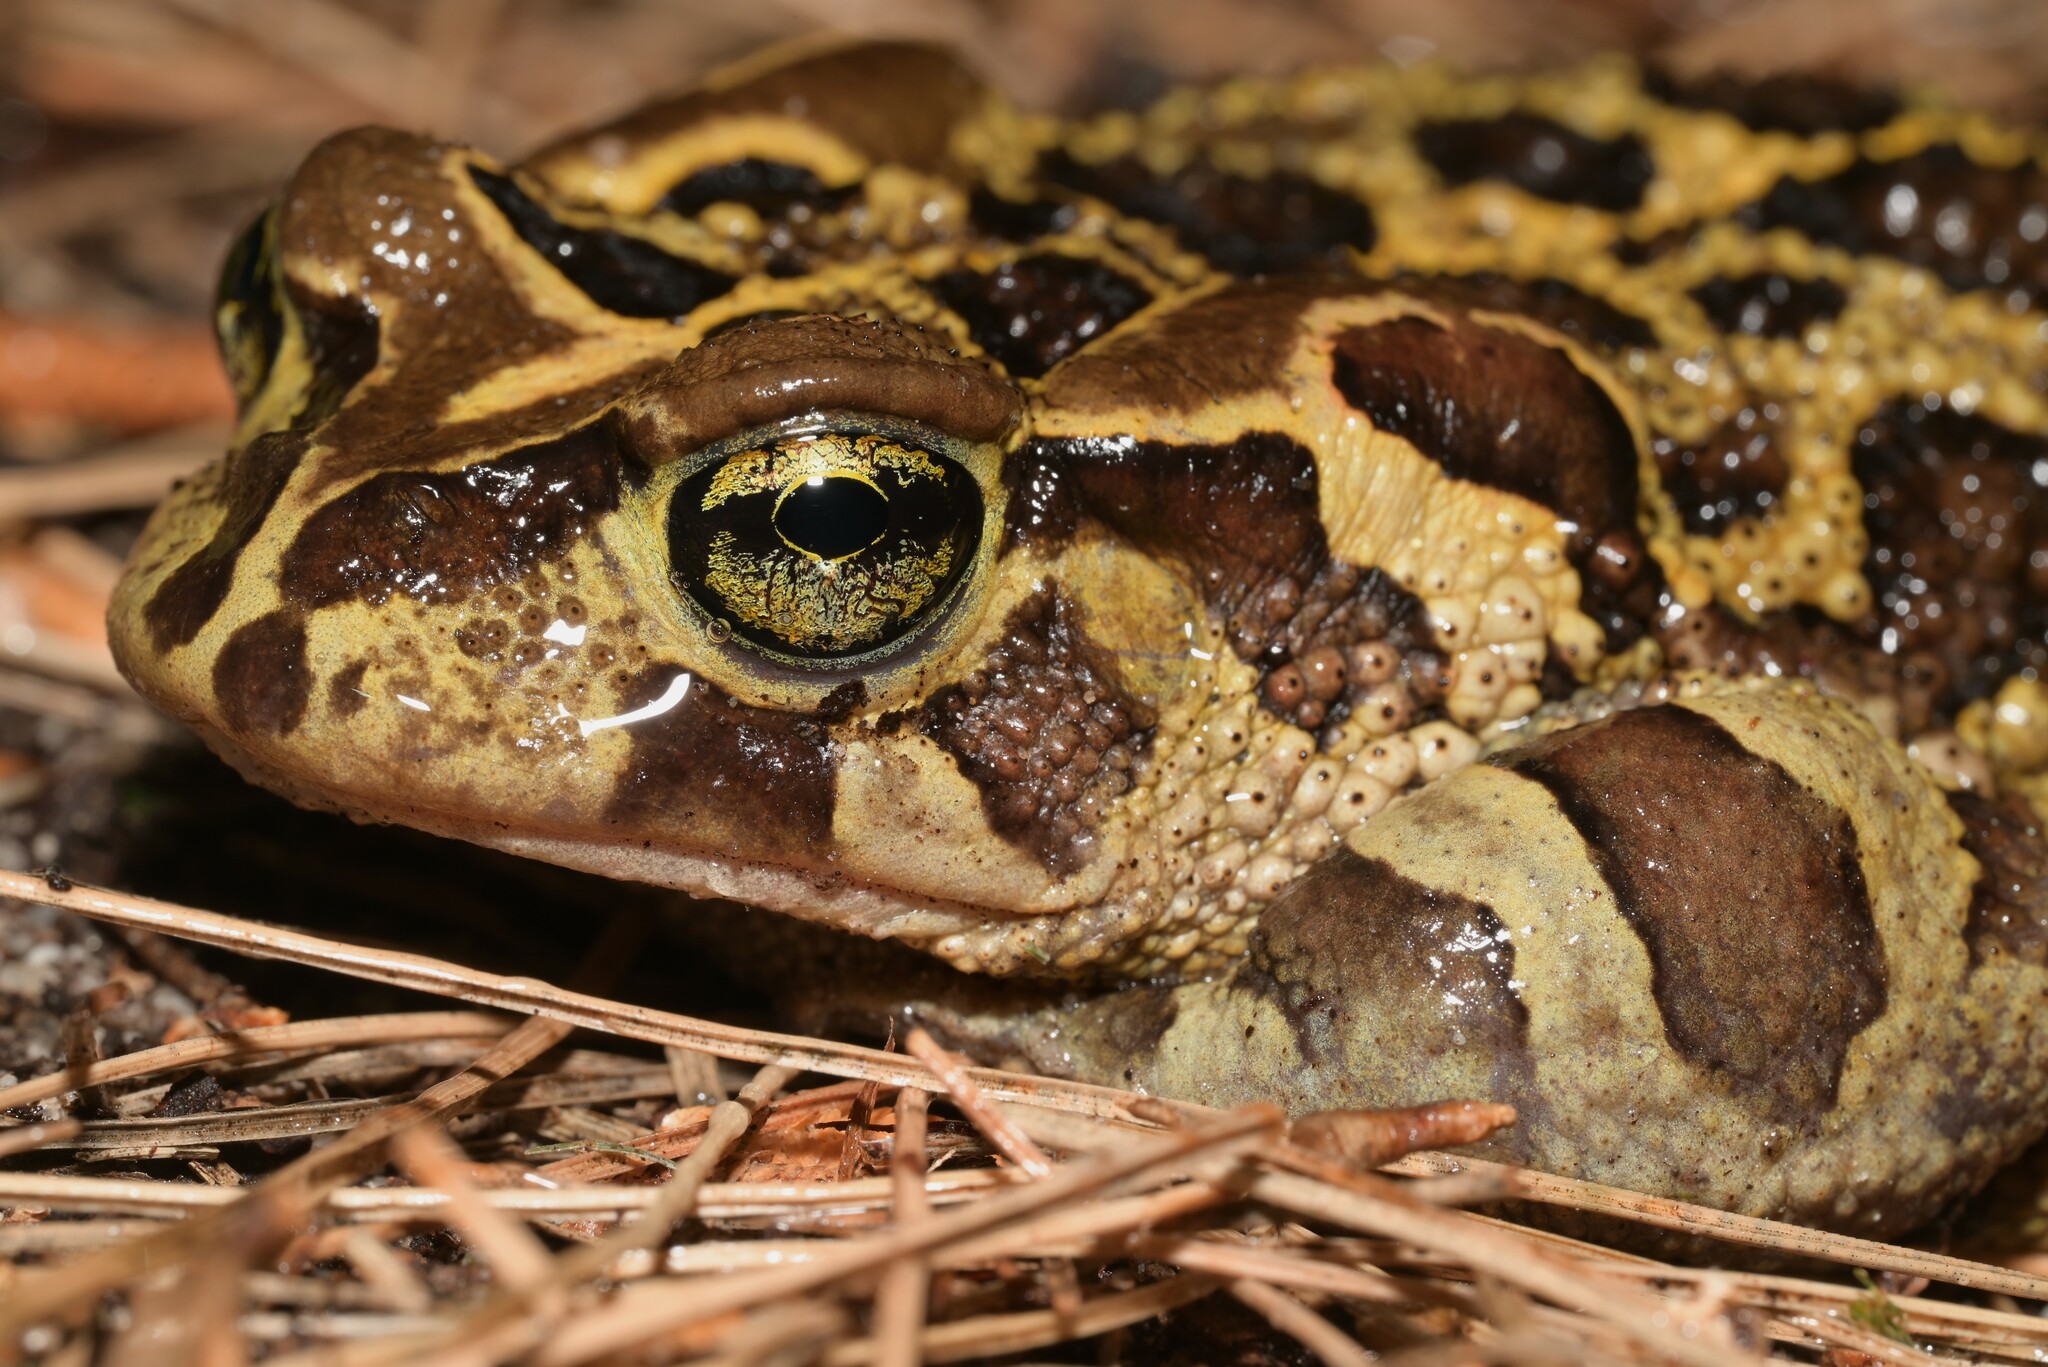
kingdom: Animalia
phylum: Chordata
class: Amphibia
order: Anura
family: Bufonidae
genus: Sclerophrys
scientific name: Sclerophrys pantherina
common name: Panther toad
